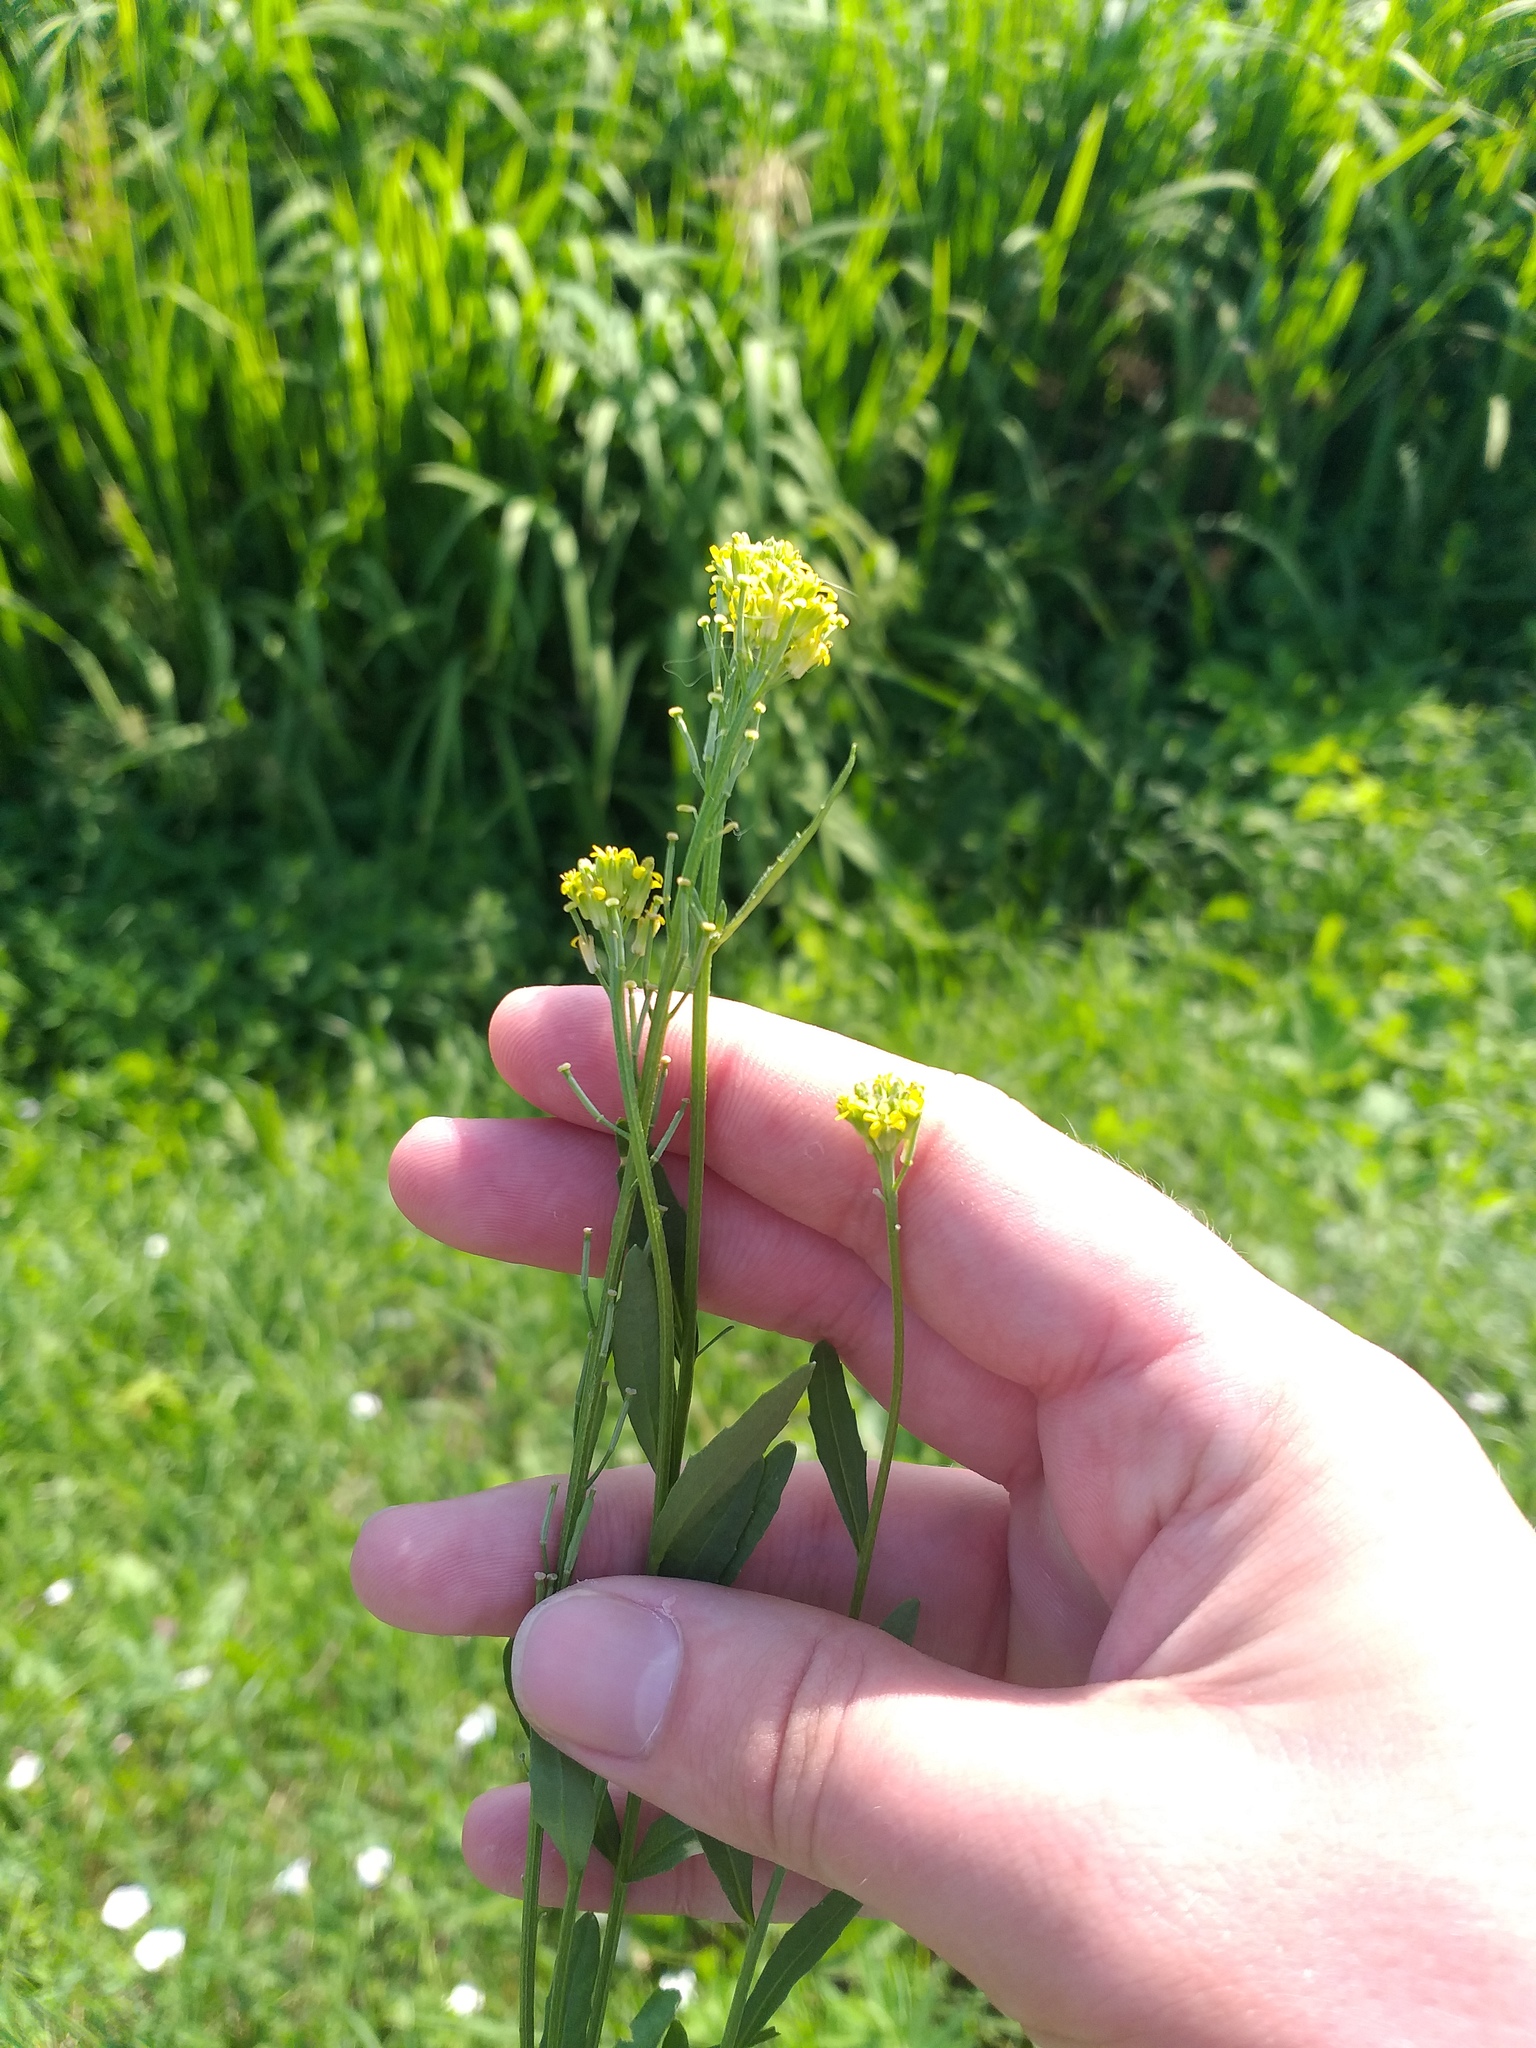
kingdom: Plantae
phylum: Tracheophyta
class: Magnoliopsida
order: Brassicales
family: Brassicaceae
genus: Erysimum
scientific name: Erysimum hieraciifolium
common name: European wallflower
